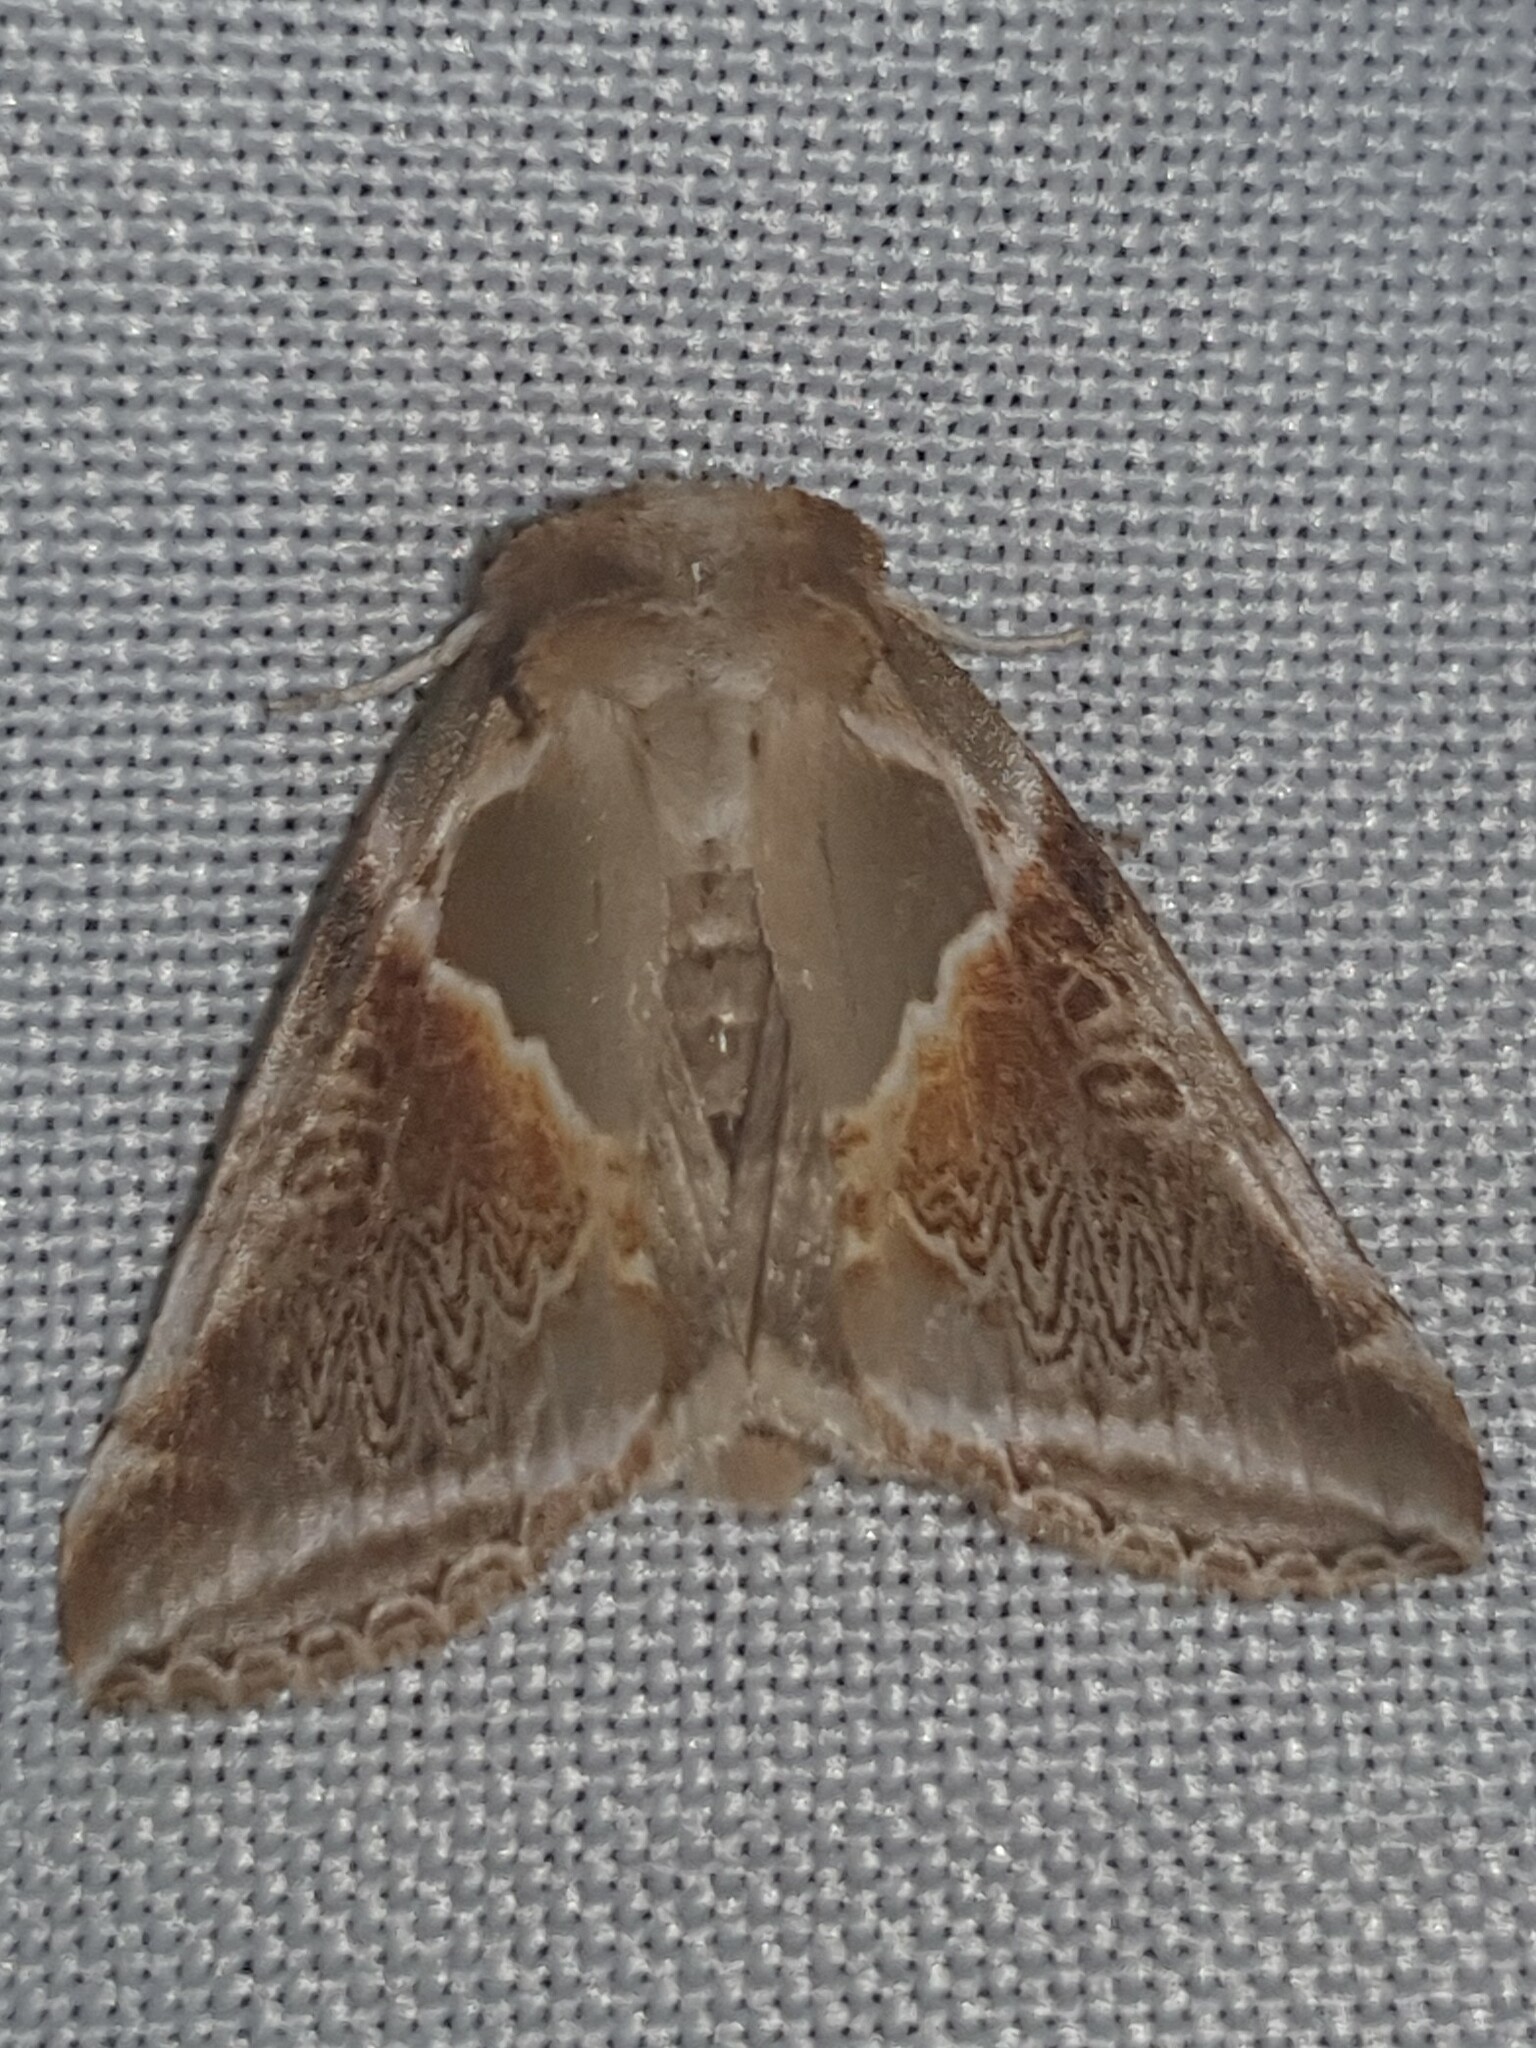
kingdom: Animalia
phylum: Arthropoda
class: Insecta
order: Lepidoptera
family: Drepanidae
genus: Habrosyne
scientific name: Habrosyne pyritoides
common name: Buff arches
